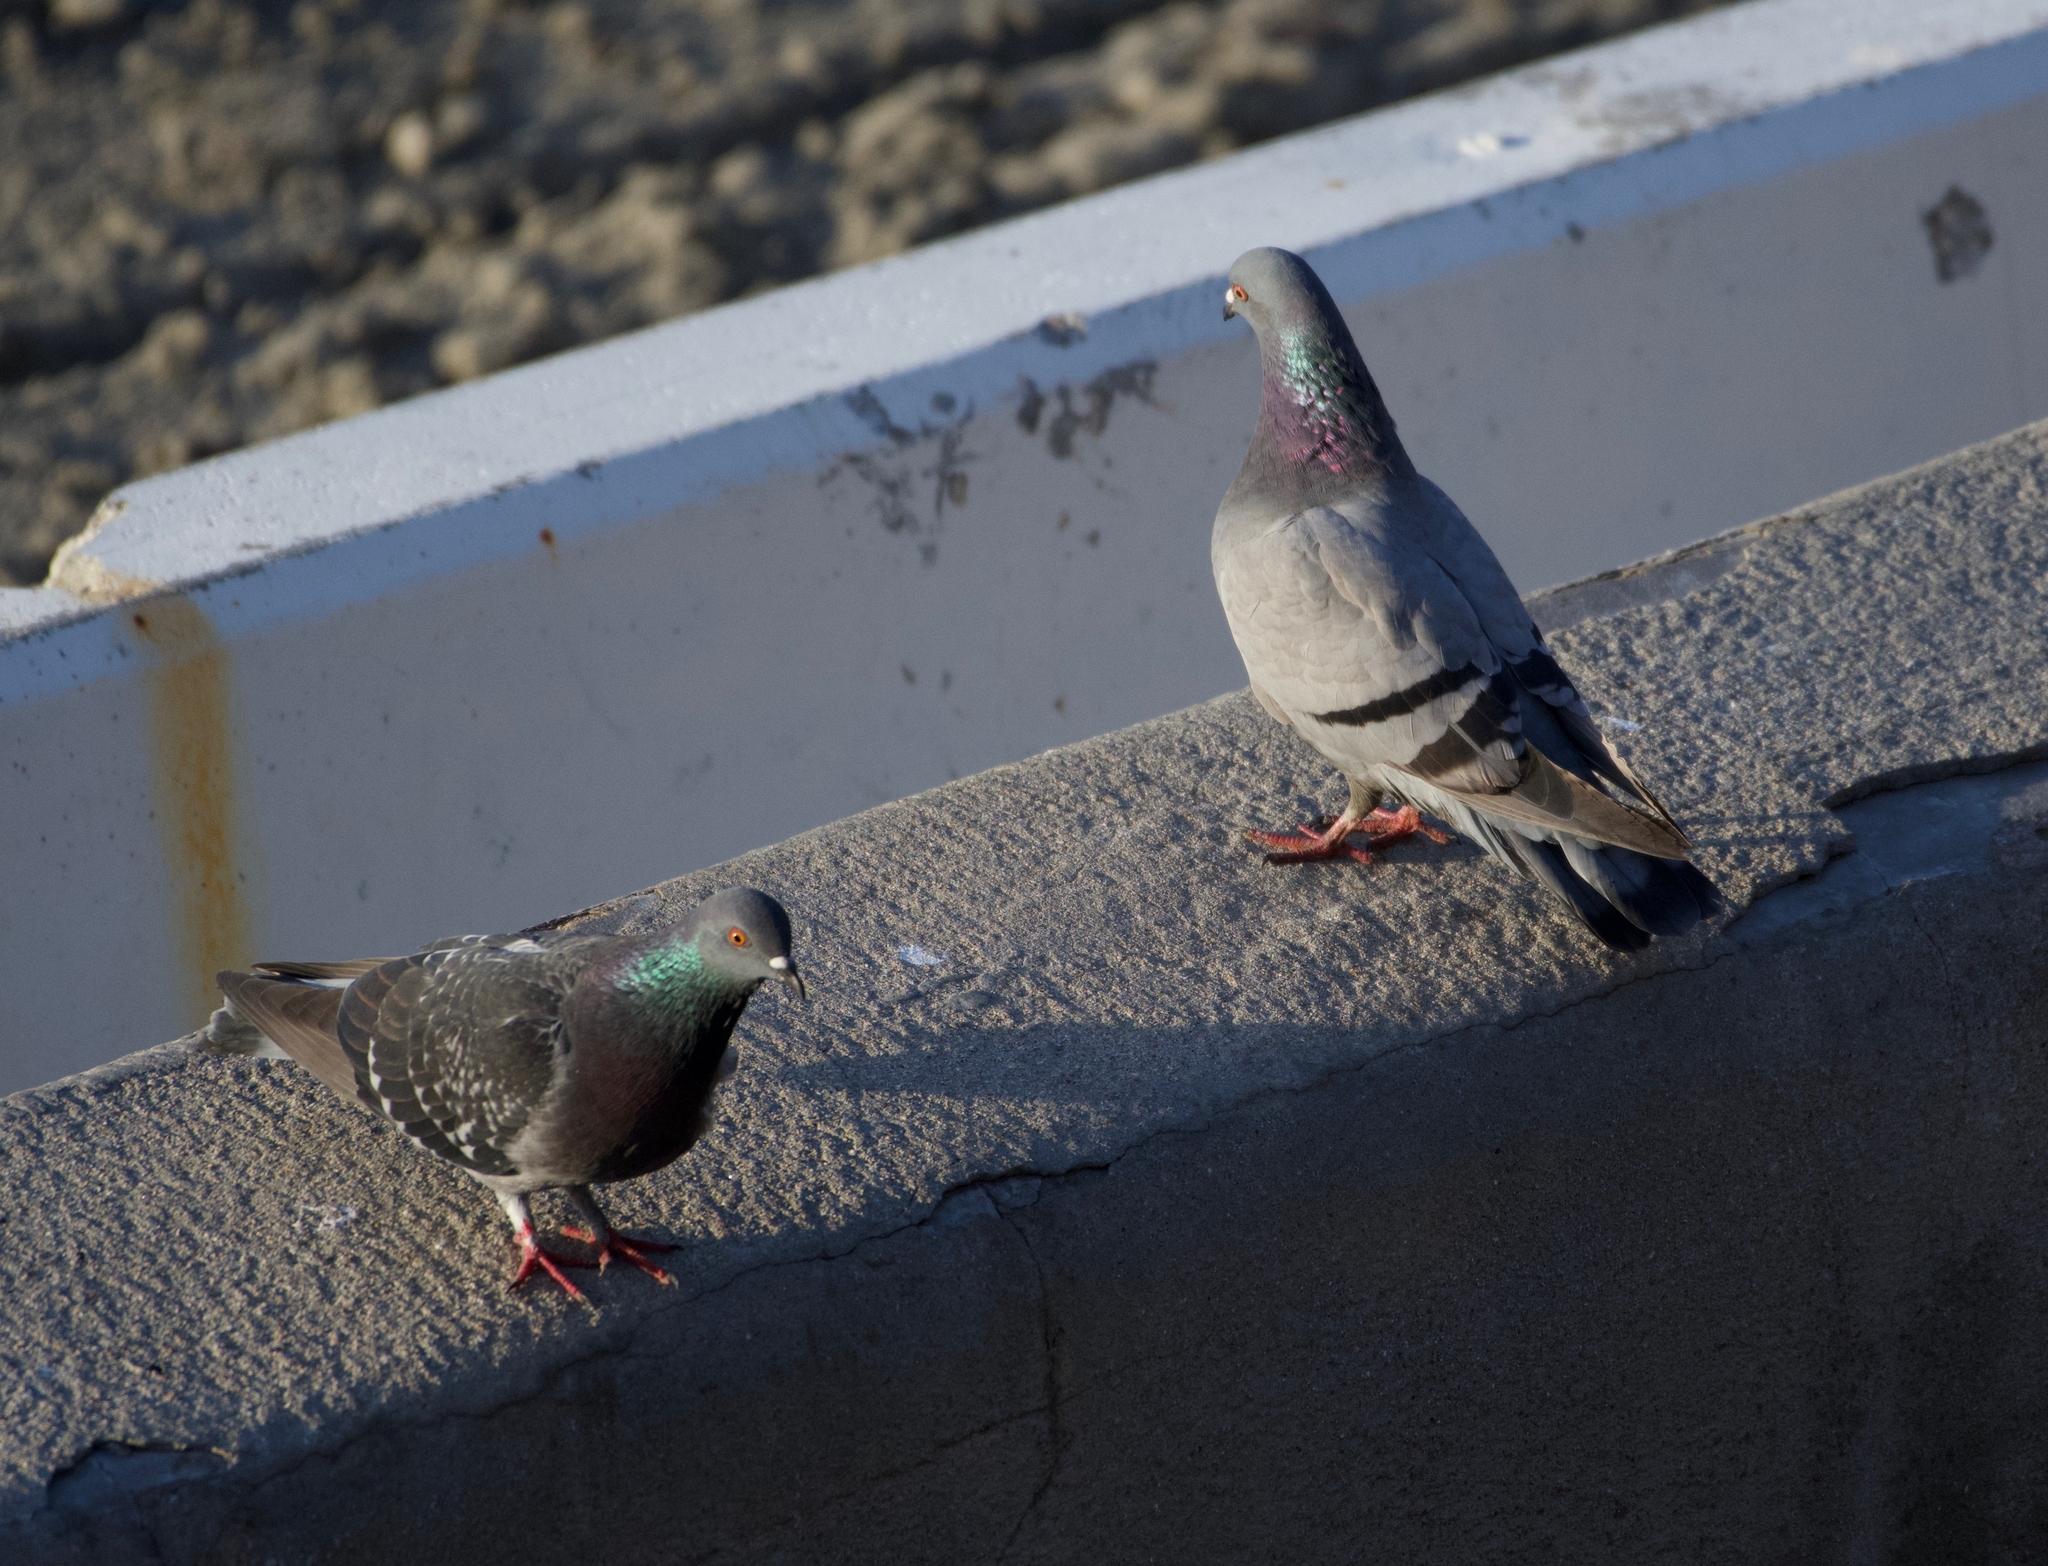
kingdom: Animalia
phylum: Chordata
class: Aves
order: Columbiformes
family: Columbidae
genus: Columba
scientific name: Columba livia
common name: Rock pigeon
